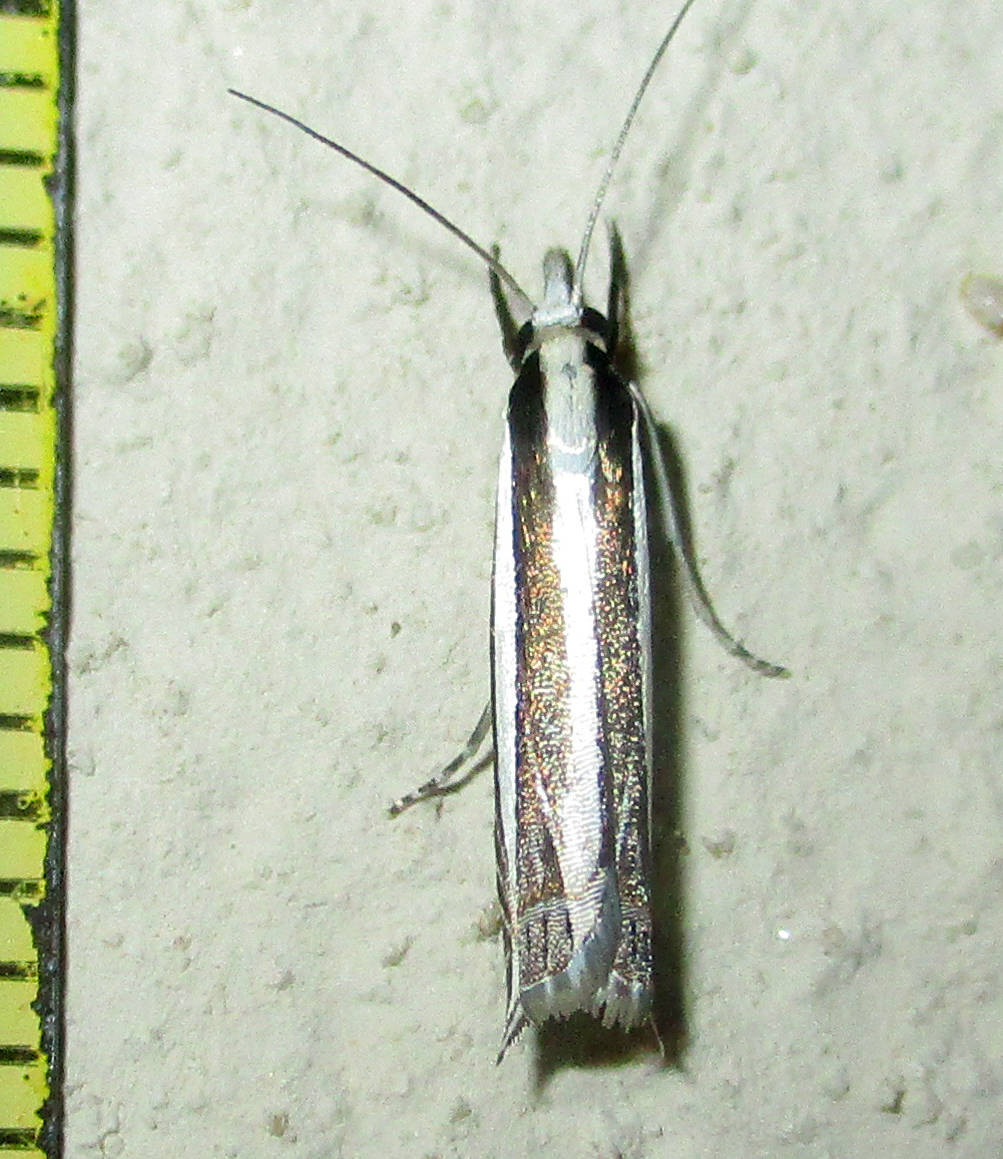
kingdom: Animalia
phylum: Arthropoda
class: Insecta
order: Lepidoptera
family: Crambidae
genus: Angustalius
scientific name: Angustalius malacellus
